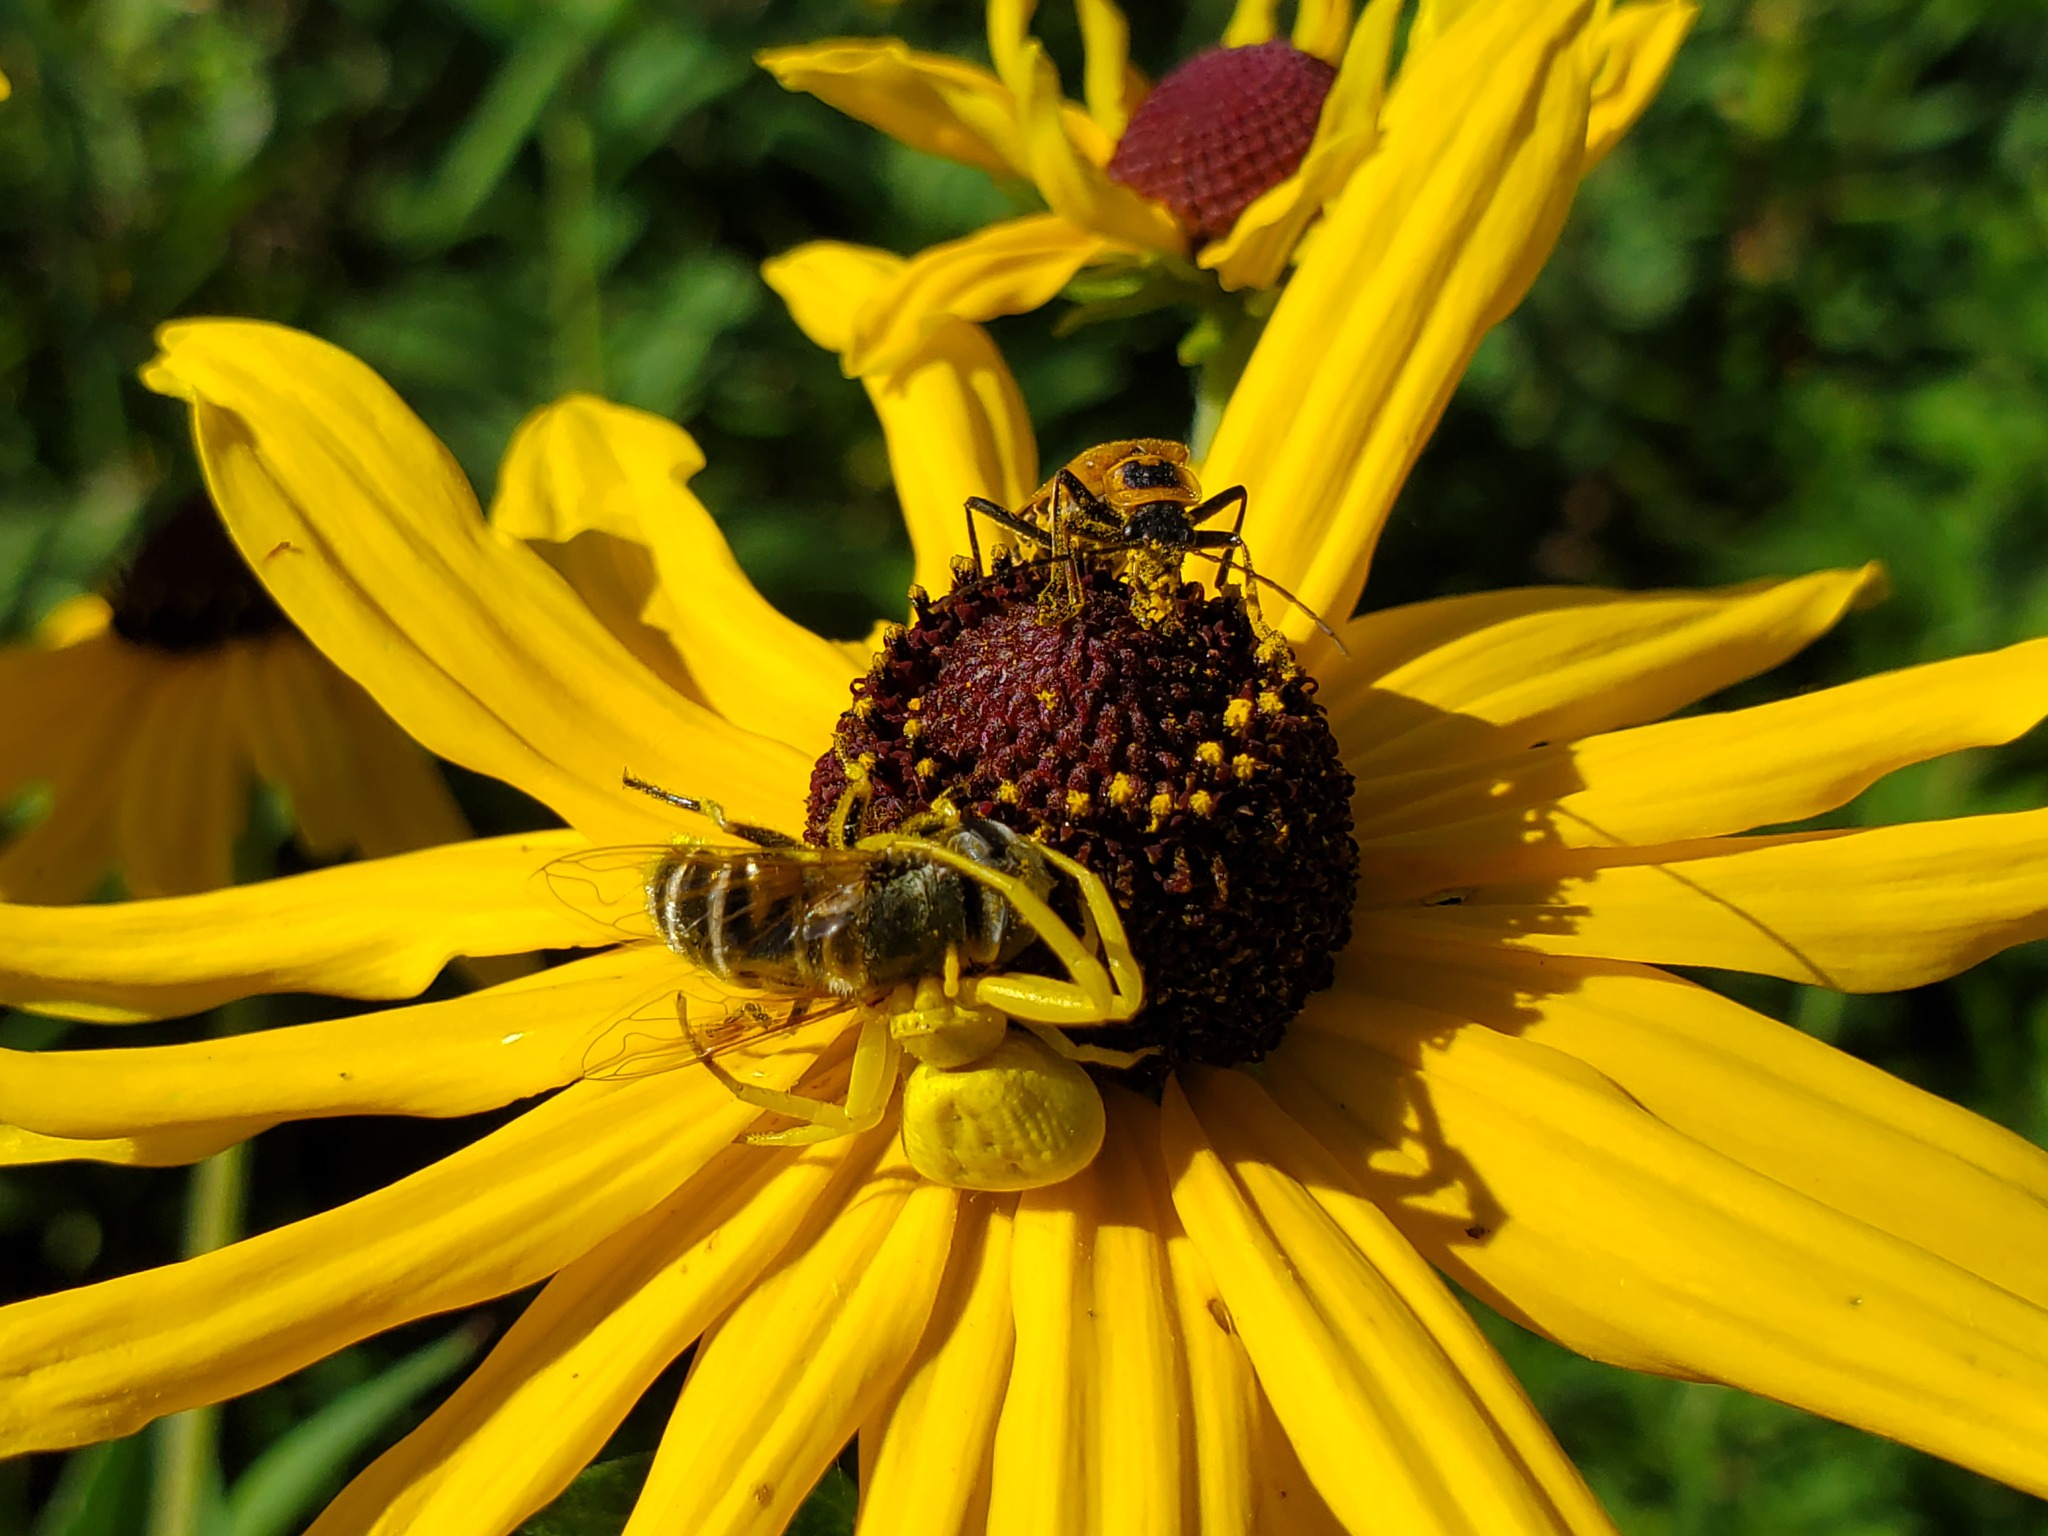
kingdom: Animalia
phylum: Arthropoda
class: Insecta
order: Diptera
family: Syrphidae
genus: Eristalis
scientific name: Eristalis stipator
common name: Yellow-shouldered drone fly
